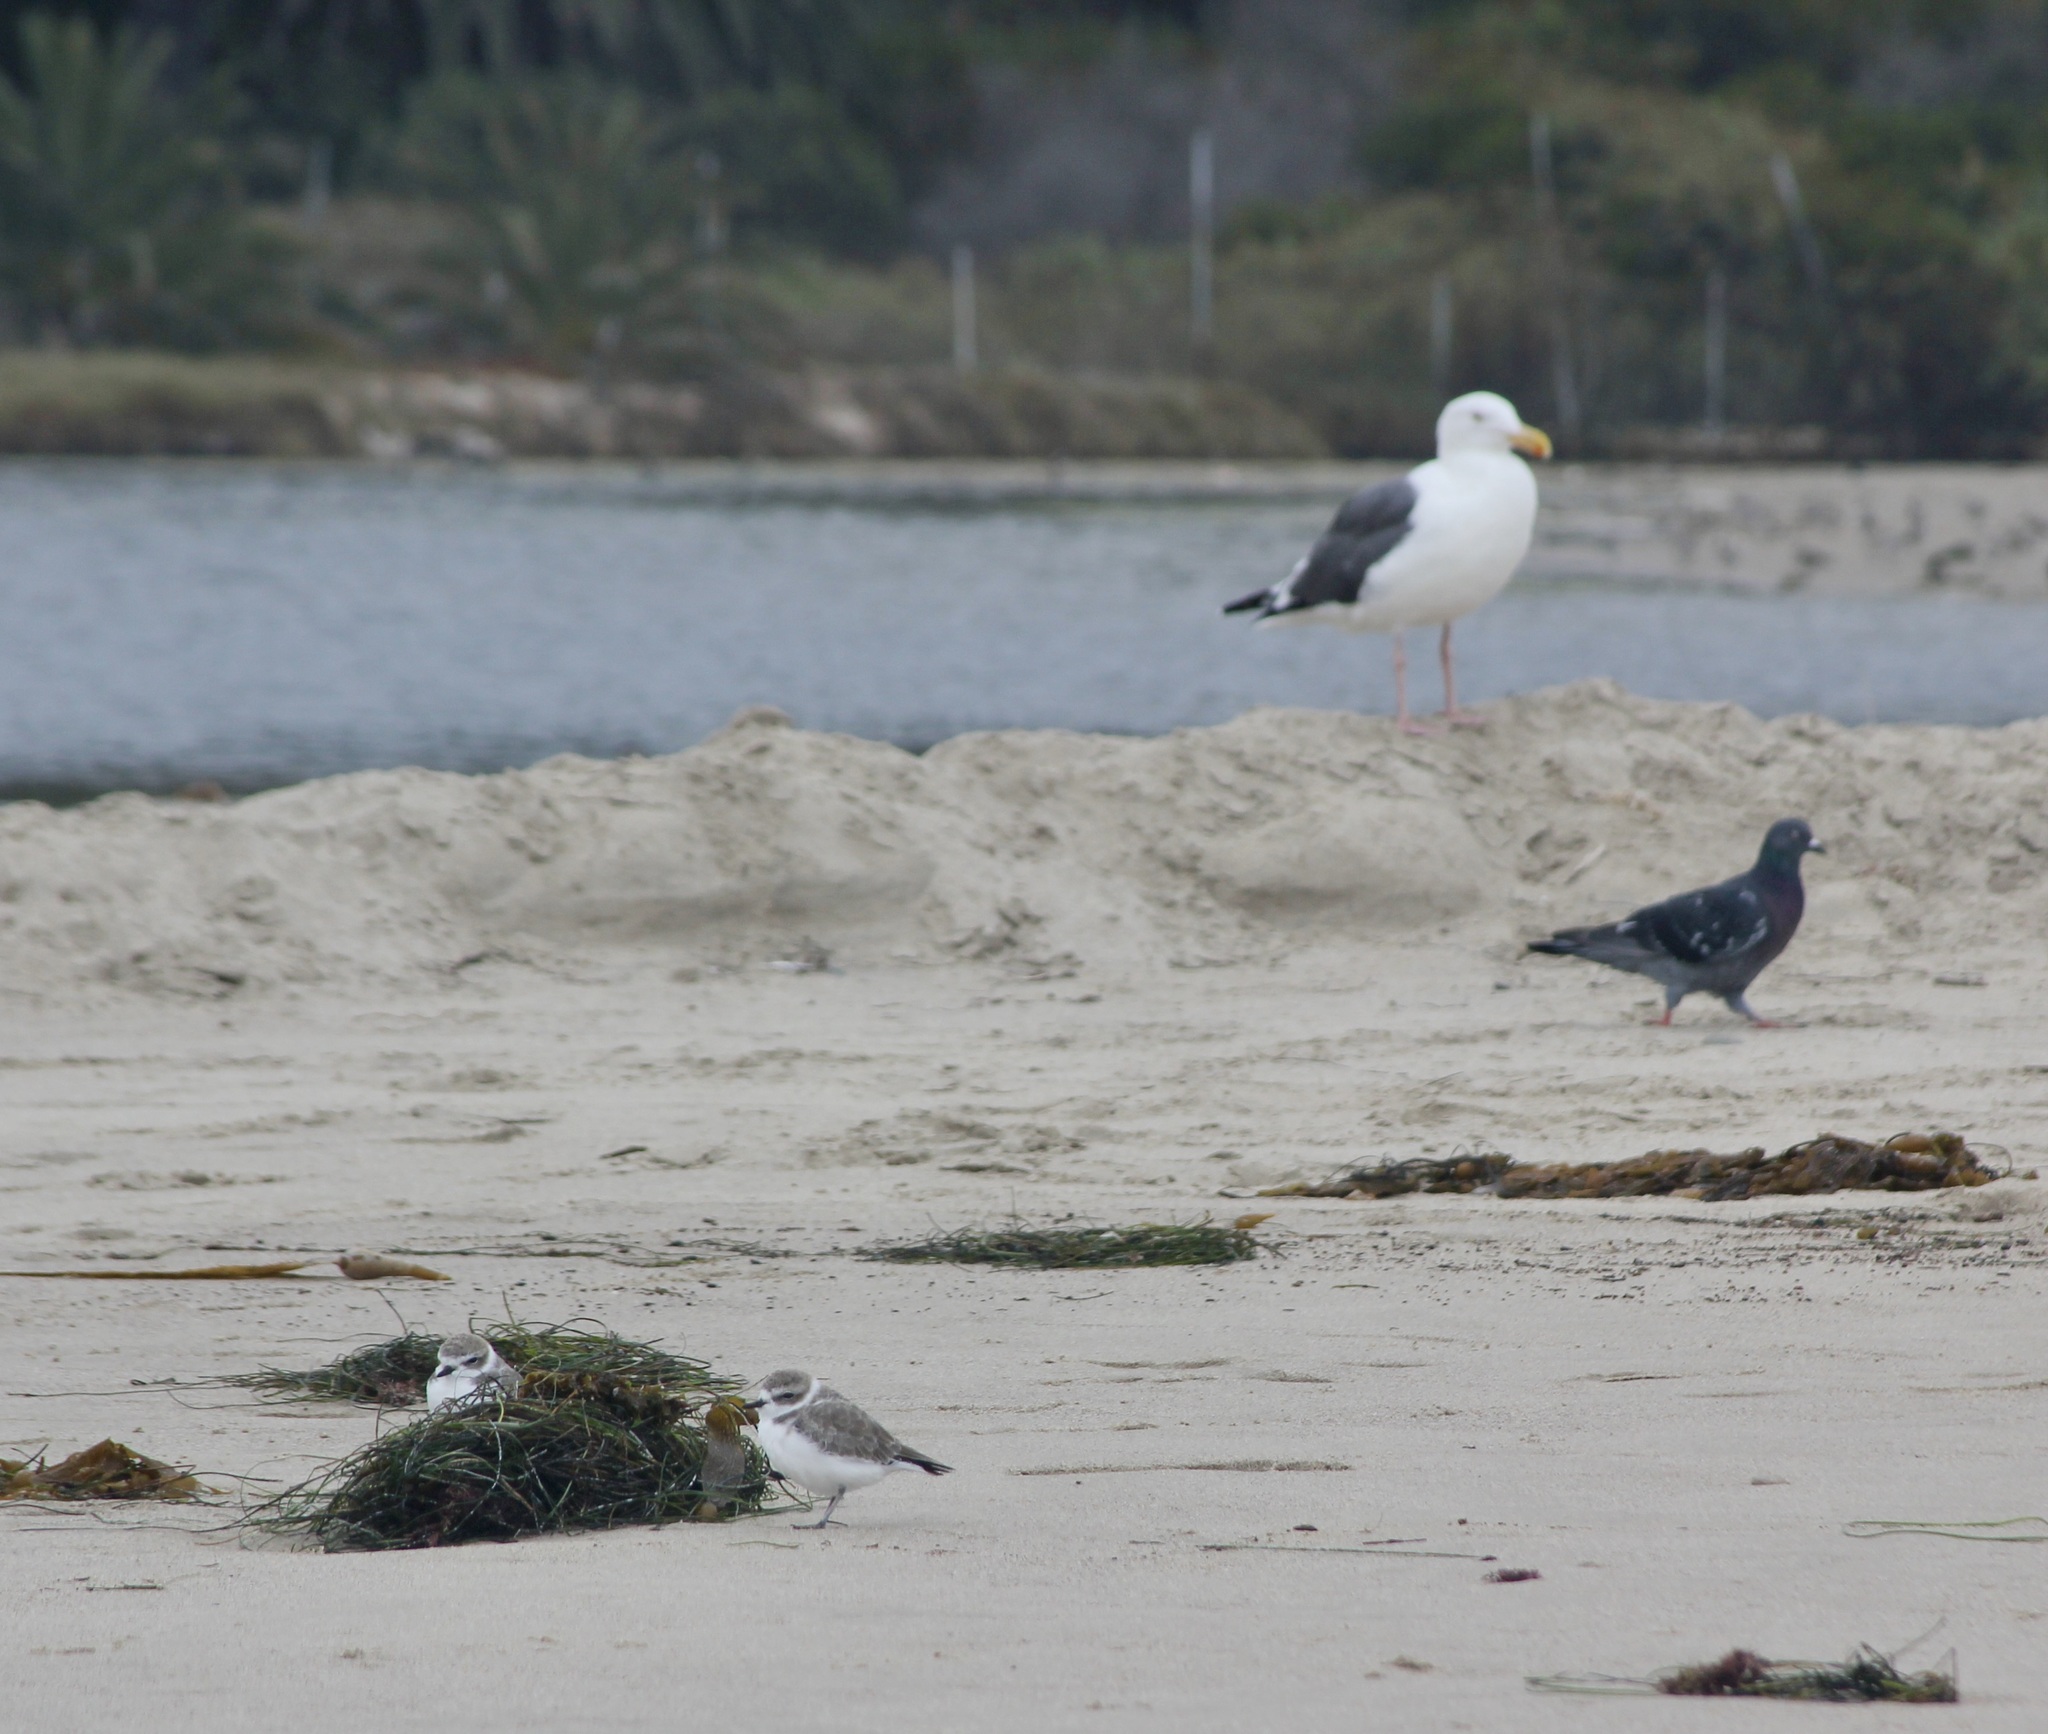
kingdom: Animalia
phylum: Chordata
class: Aves
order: Columbiformes
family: Columbidae
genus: Columba
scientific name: Columba livia
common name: Rock pigeon
